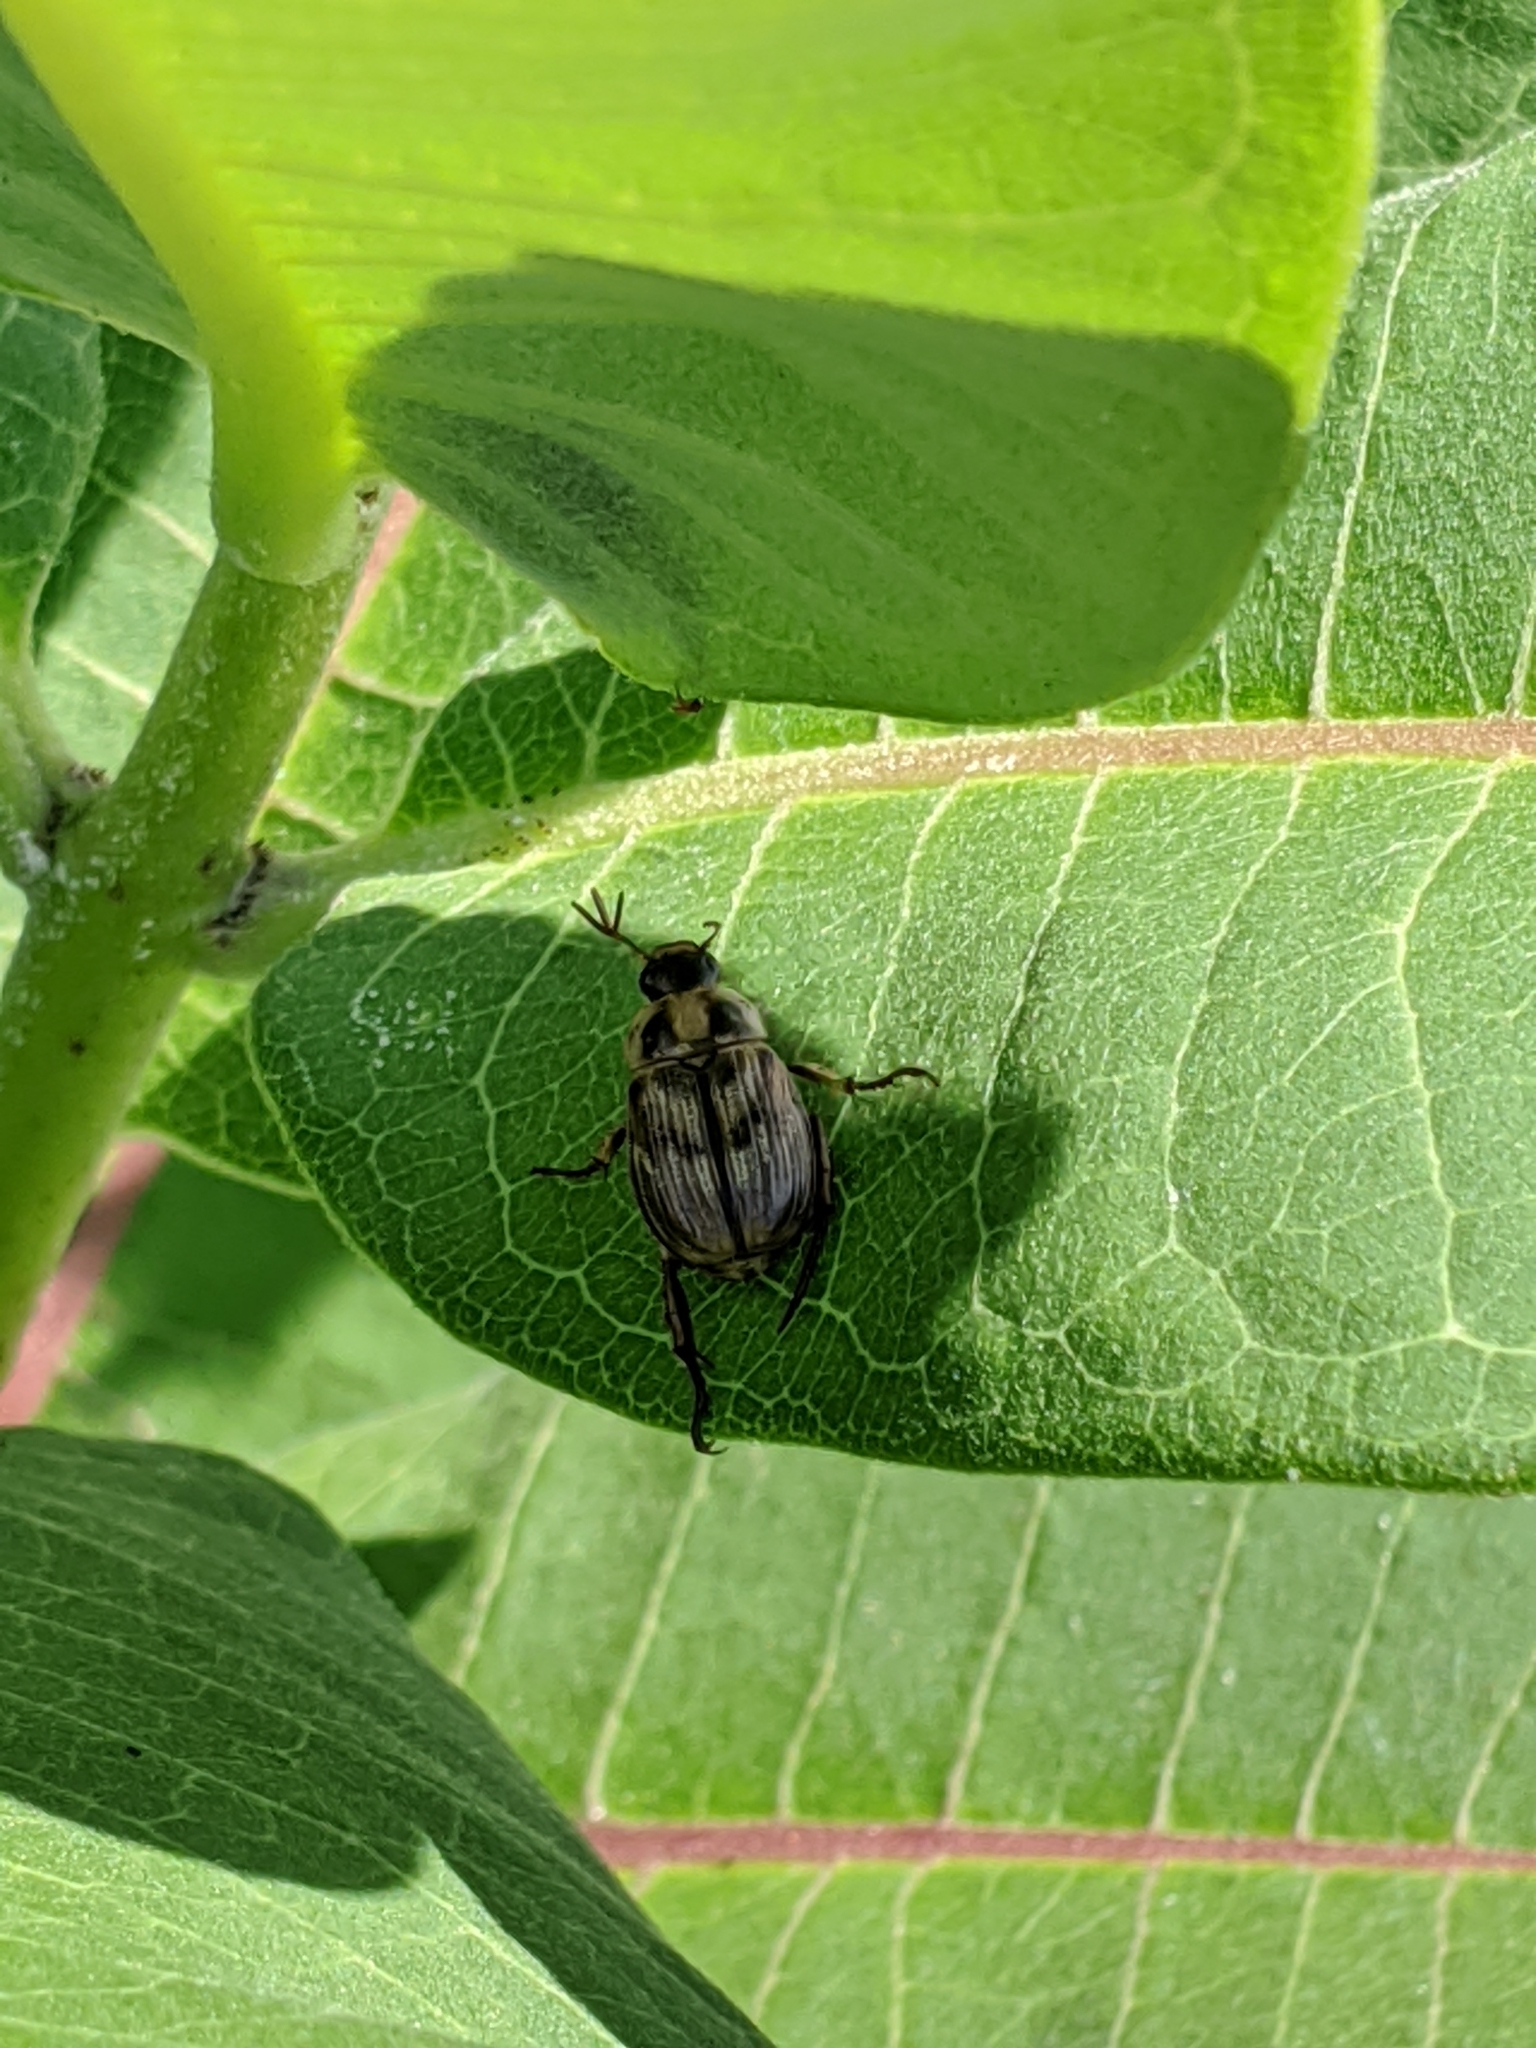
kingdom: Animalia
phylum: Arthropoda
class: Insecta
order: Coleoptera
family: Scarabaeidae
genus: Exomala
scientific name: Exomala orientalis
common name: Oriental beetle
